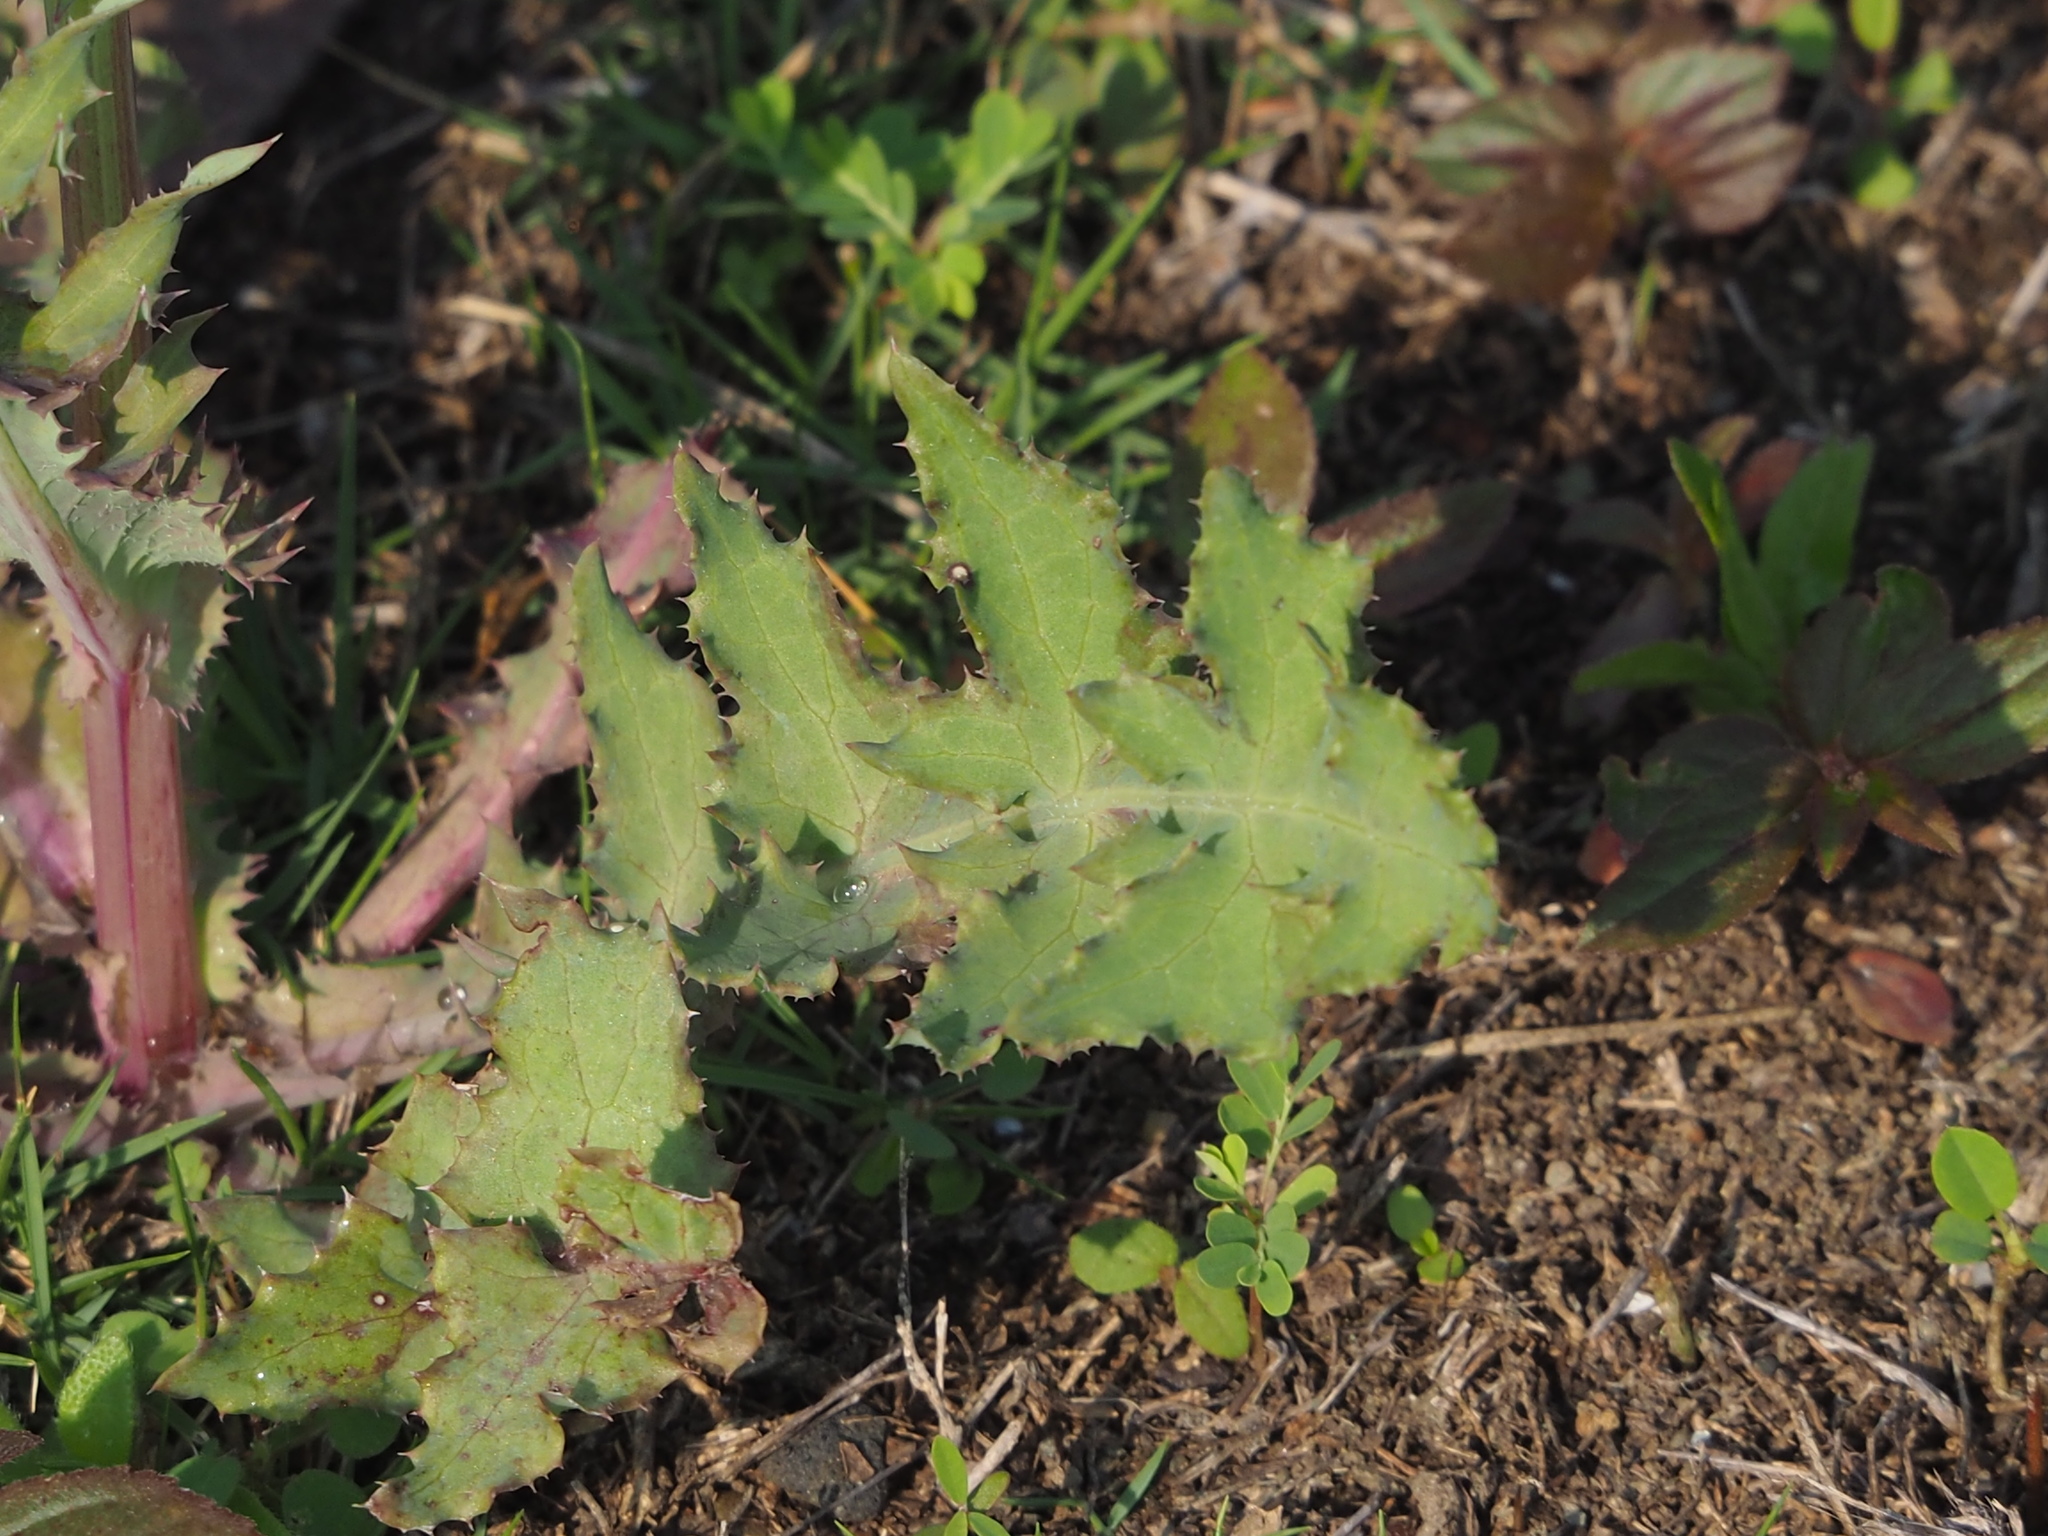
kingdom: Plantae
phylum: Tracheophyta
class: Magnoliopsida
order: Asterales
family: Asteraceae
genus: Sonchus
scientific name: Sonchus oleraceus
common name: Common sowthistle
